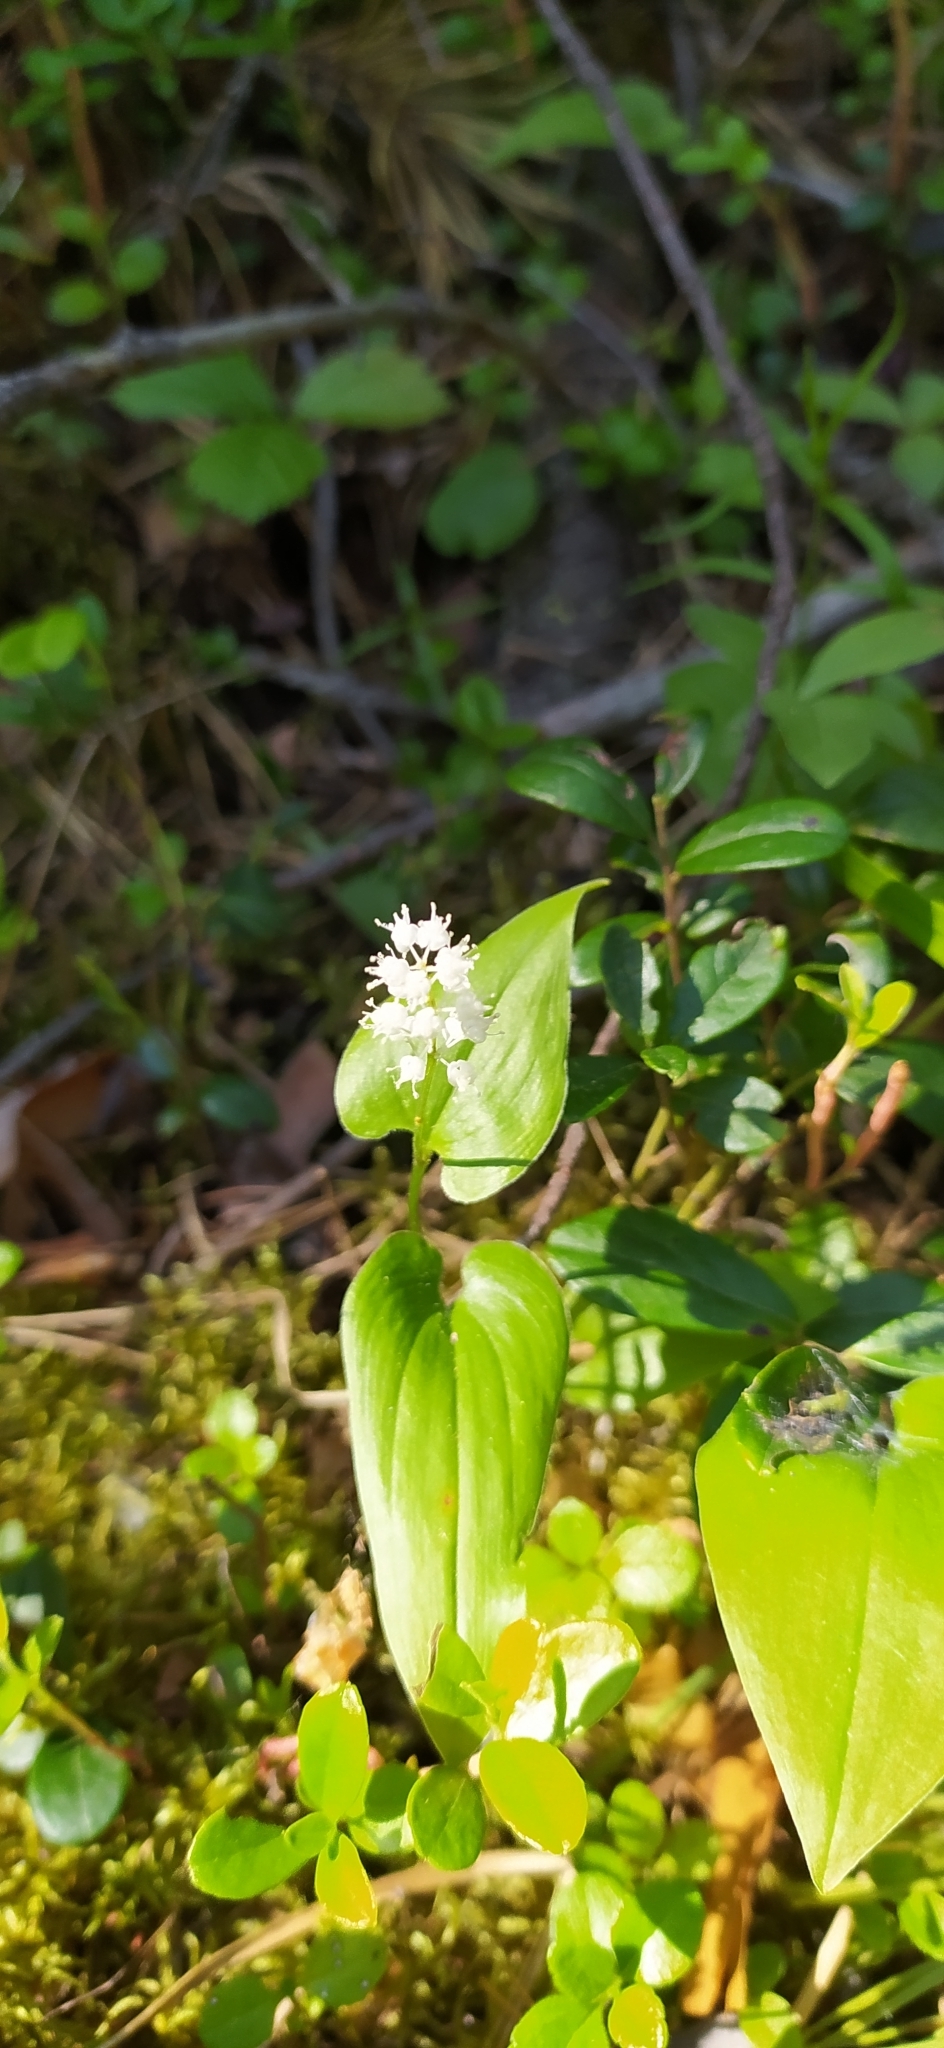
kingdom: Plantae
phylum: Tracheophyta
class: Liliopsida
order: Asparagales
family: Asparagaceae
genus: Maianthemum
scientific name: Maianthemum bifolium
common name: May lily
